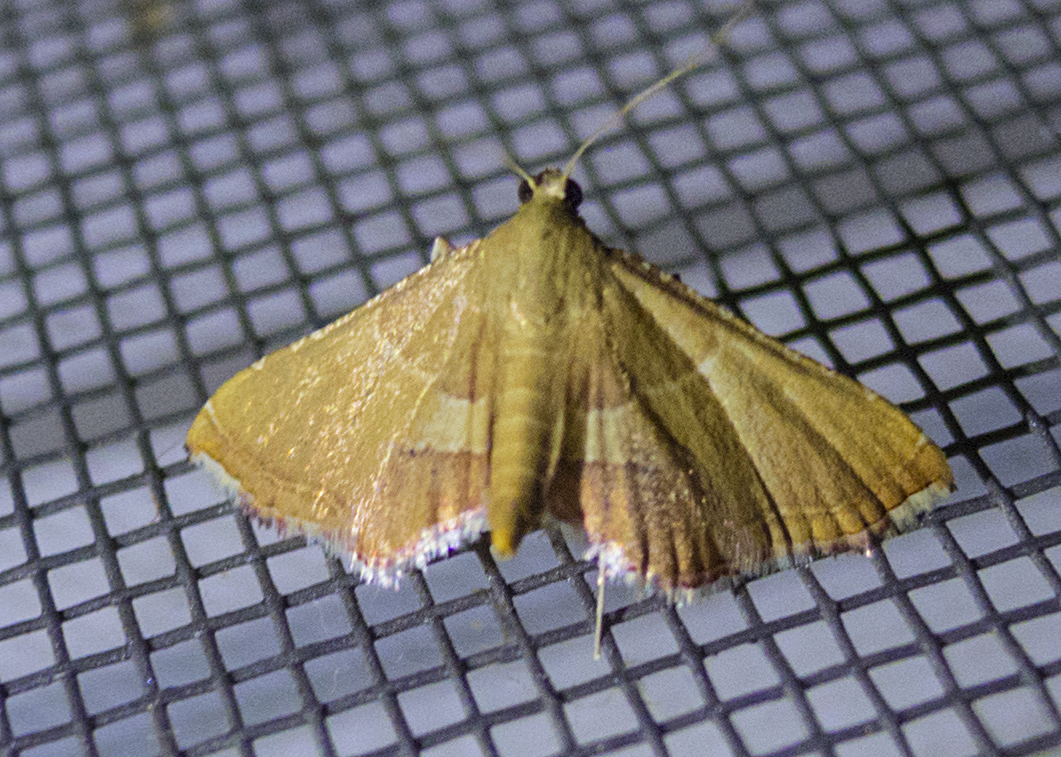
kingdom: Animalia
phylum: Arthropoda
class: Insecta
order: Lepidoptera
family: Pyralidae
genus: Endotricha
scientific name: Endotricha flammealis
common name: Rosy tabby
